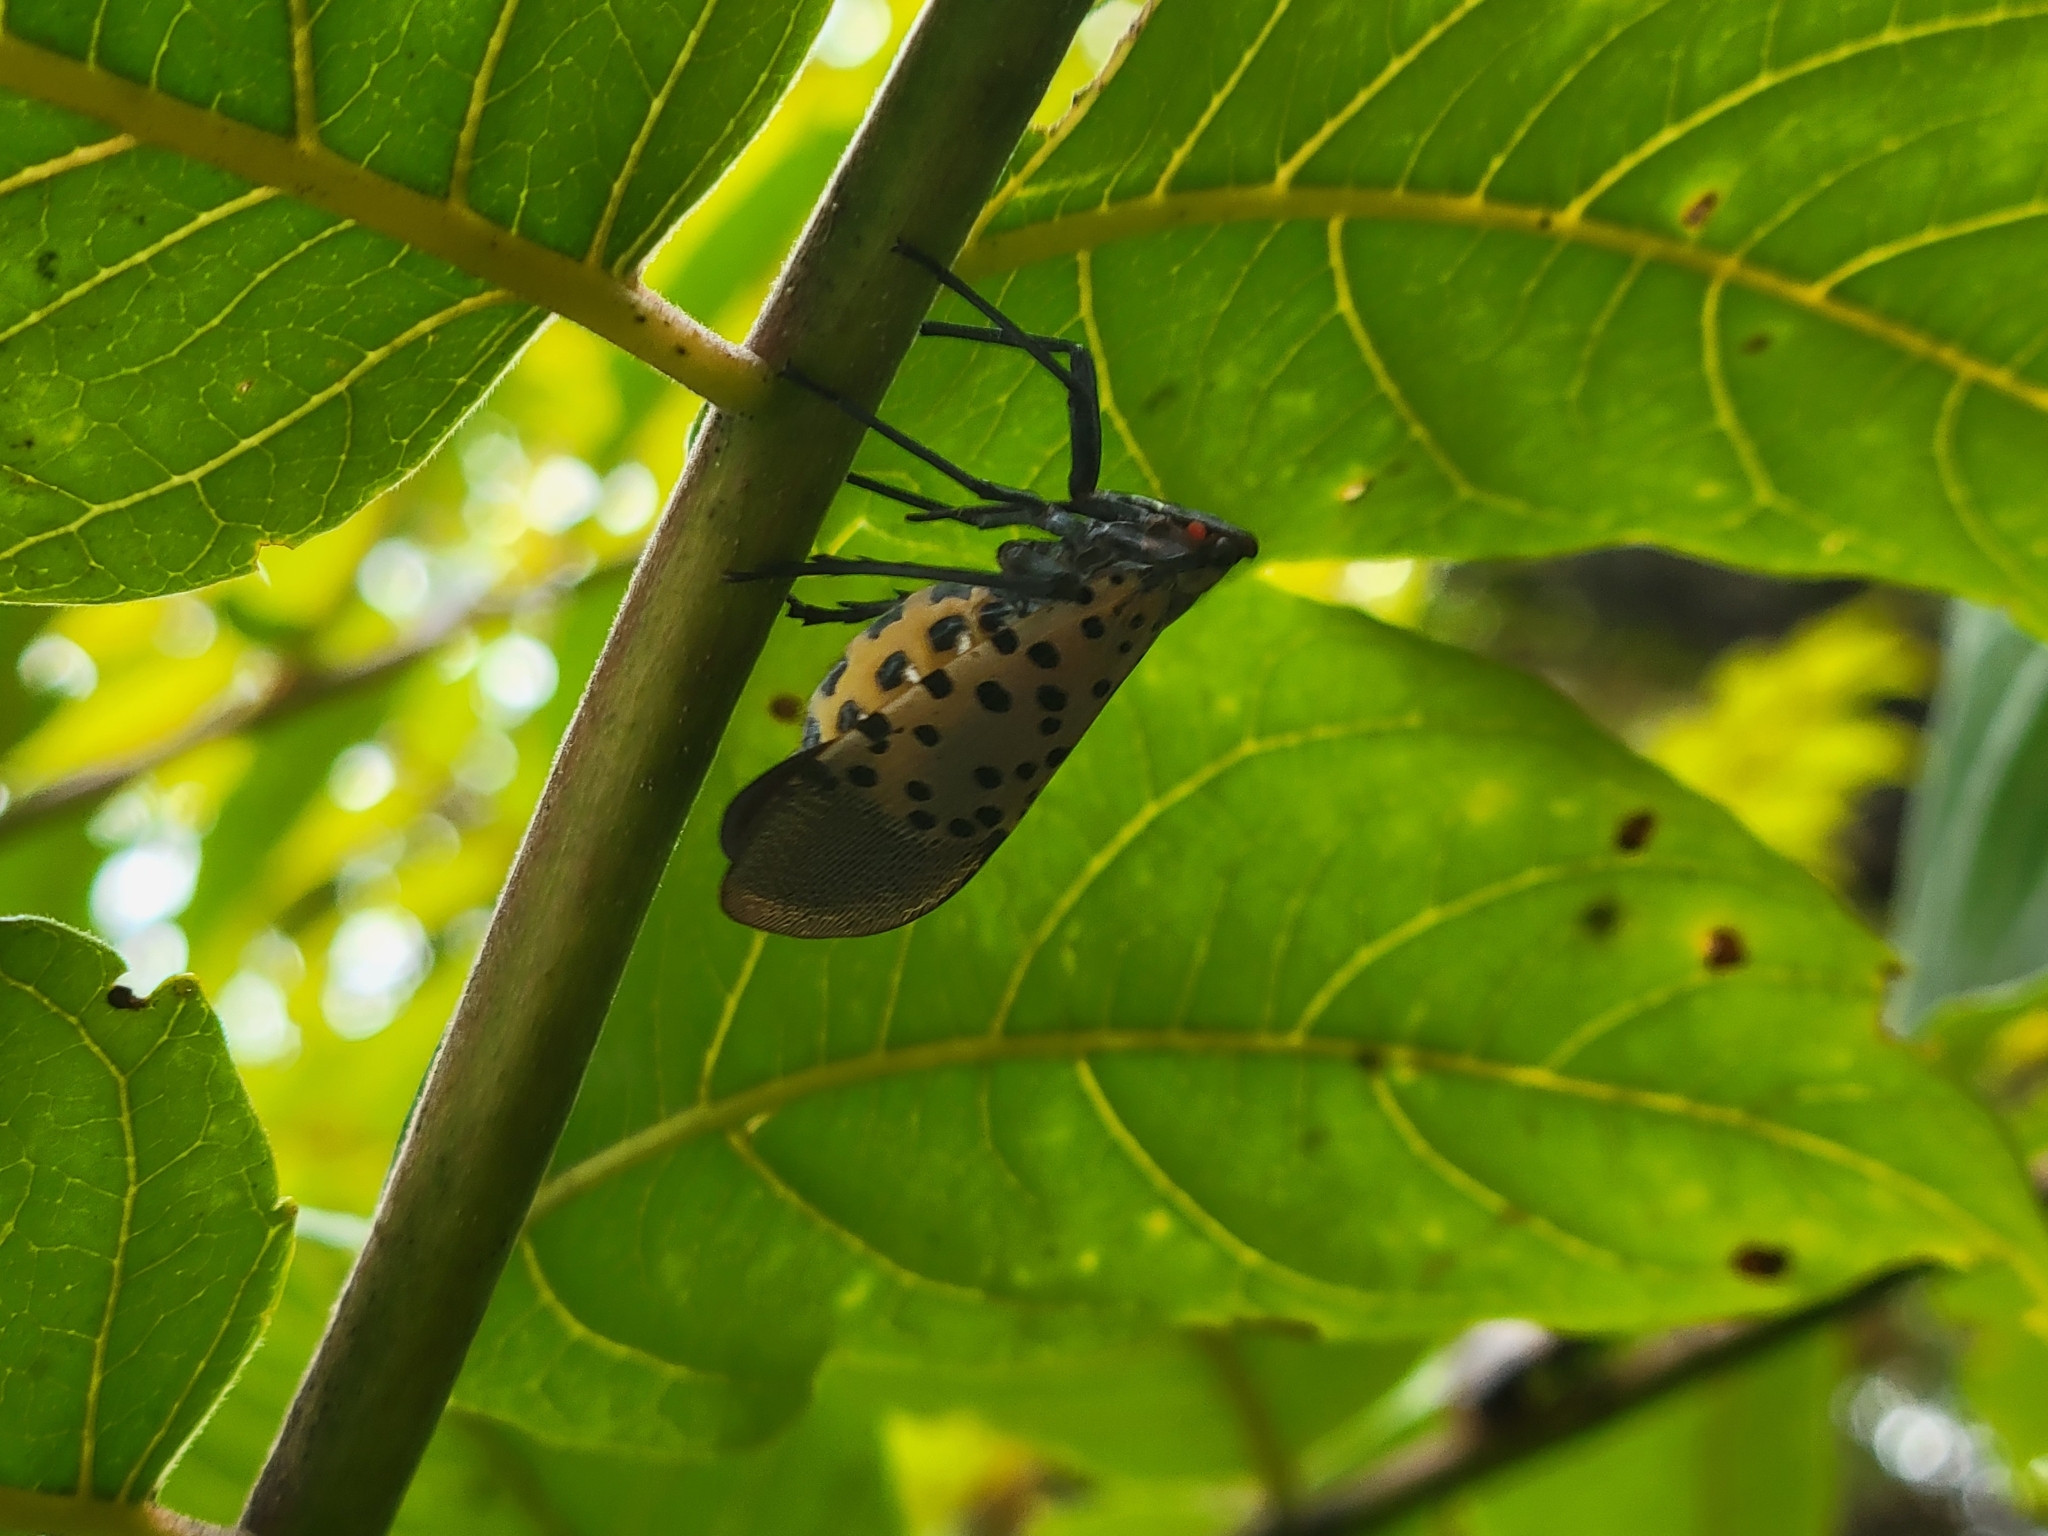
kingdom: Animalia
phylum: Arthropoda
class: Insecta
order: Hemiptera
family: Fulgoridae
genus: Lycorma
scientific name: Lycorma delicatula
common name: Spotted lanternfly
